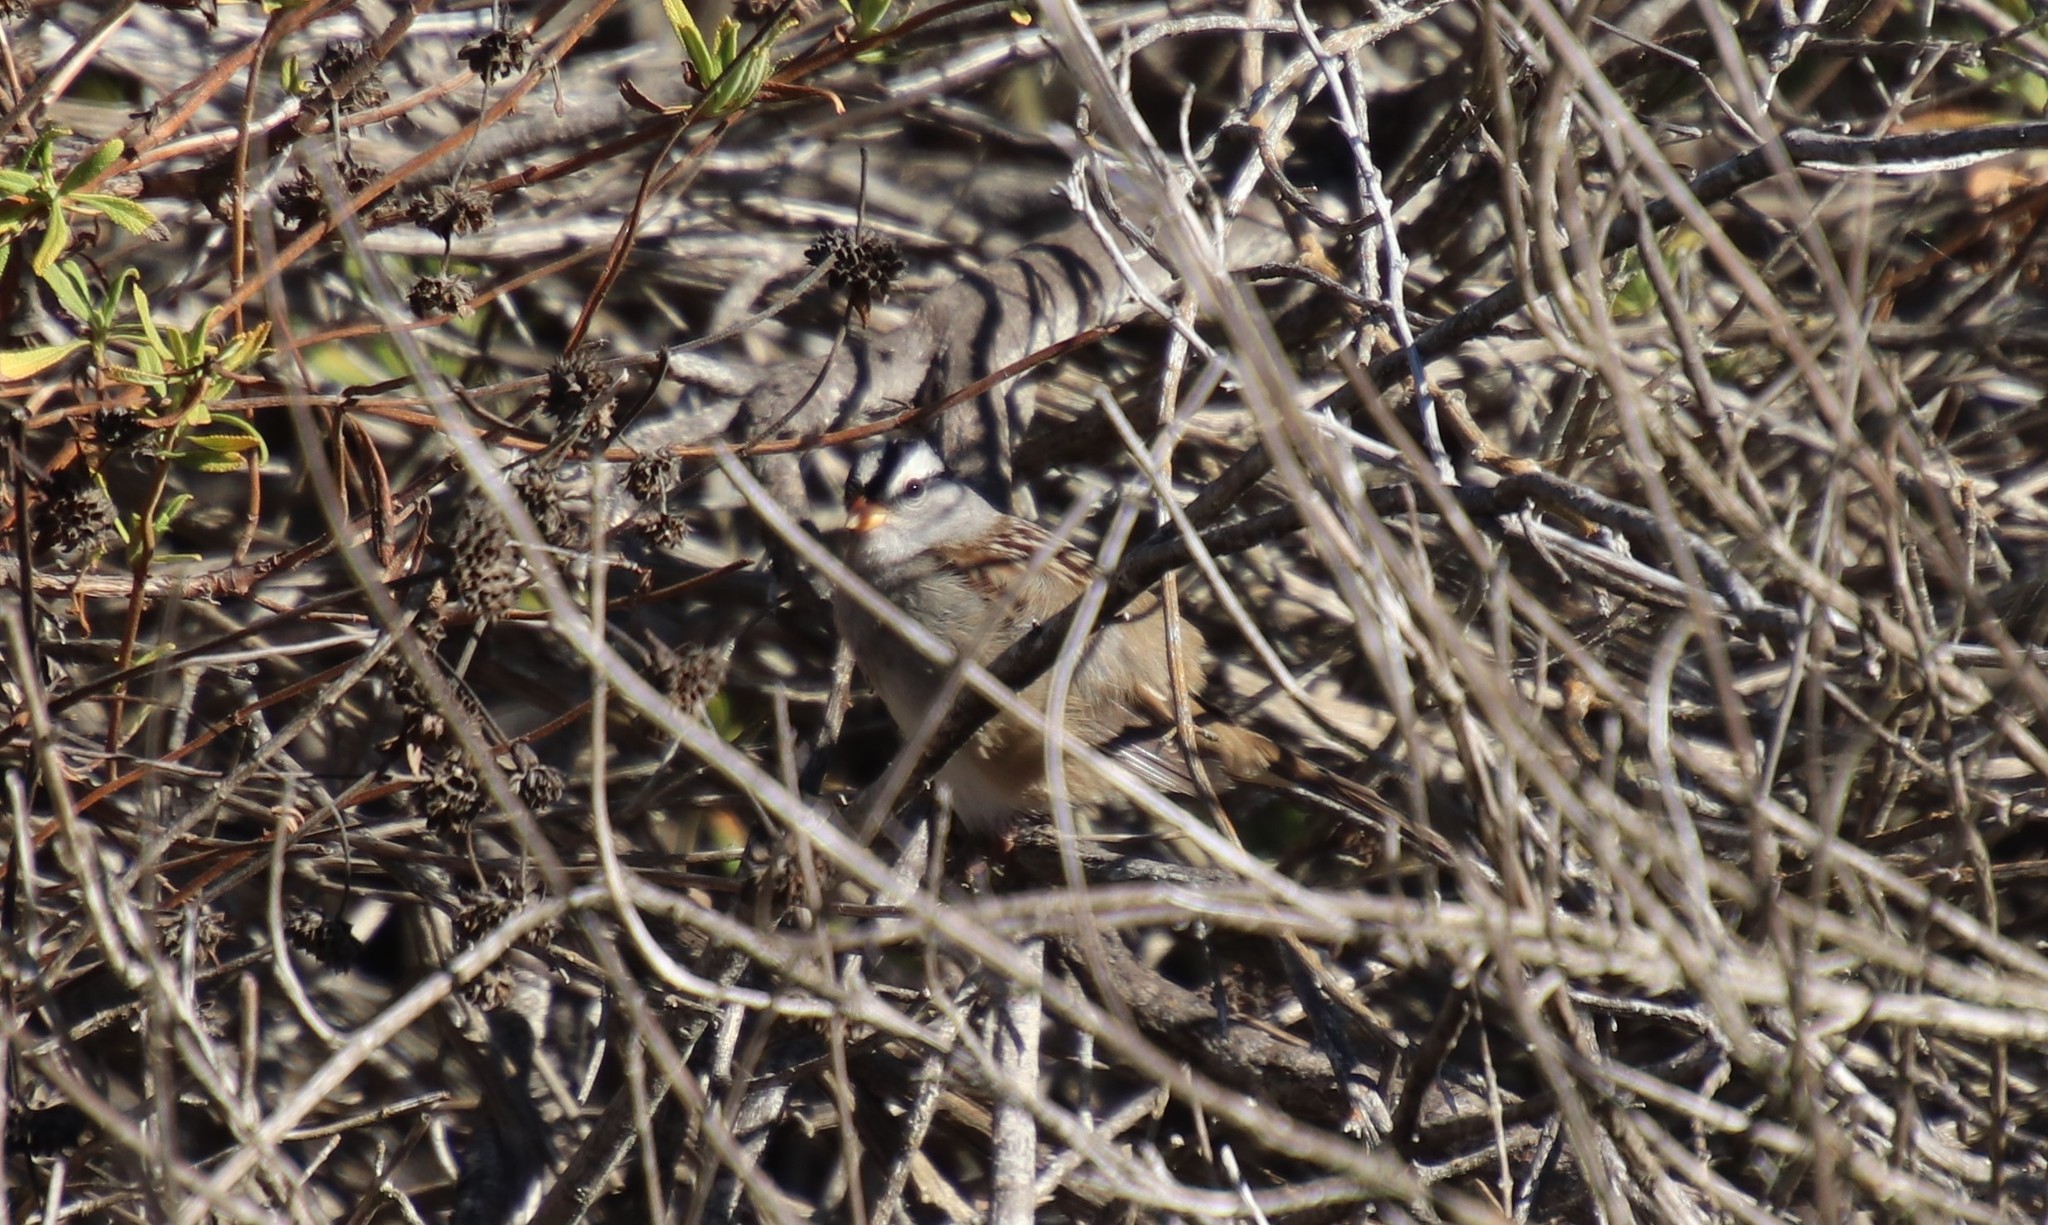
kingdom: Animalia
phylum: Chordata
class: Aves
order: Passeriformes
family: Passerellidae
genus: Zonotrichia
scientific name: Zonotrichia leucophrys
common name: White-crowned sparrow
